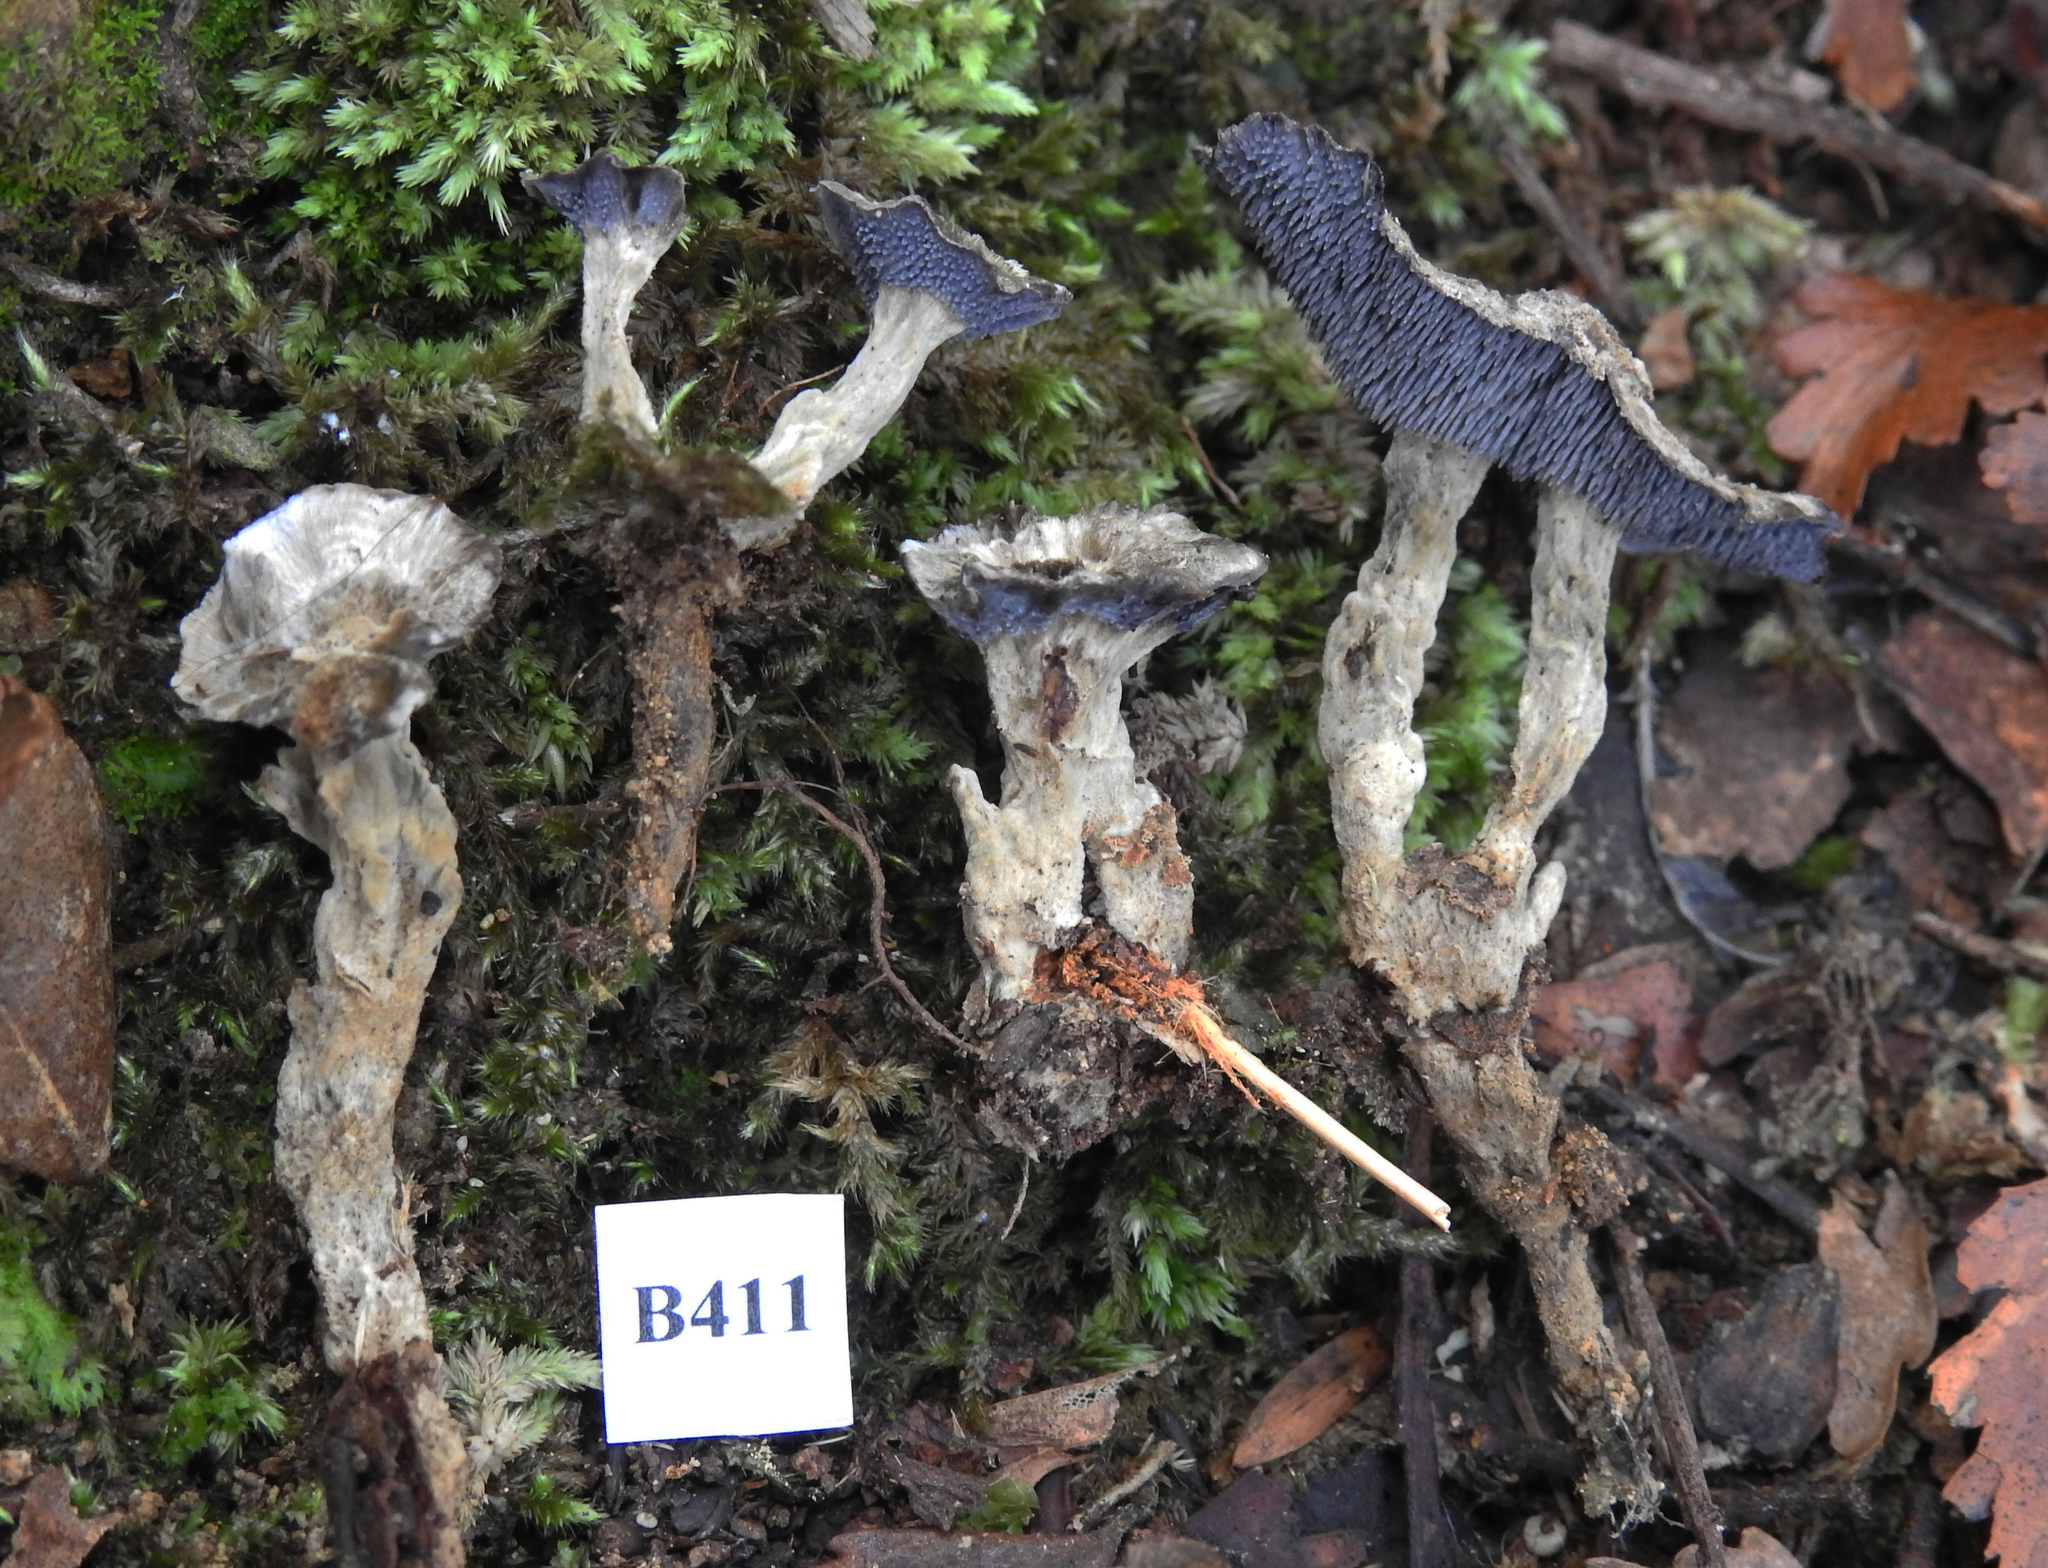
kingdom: Fungi
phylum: Basidiomycota
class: Agaricomycetes
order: Thelephorales
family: Thelephoraceae
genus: Phellodon
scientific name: Phellodon maliensis
